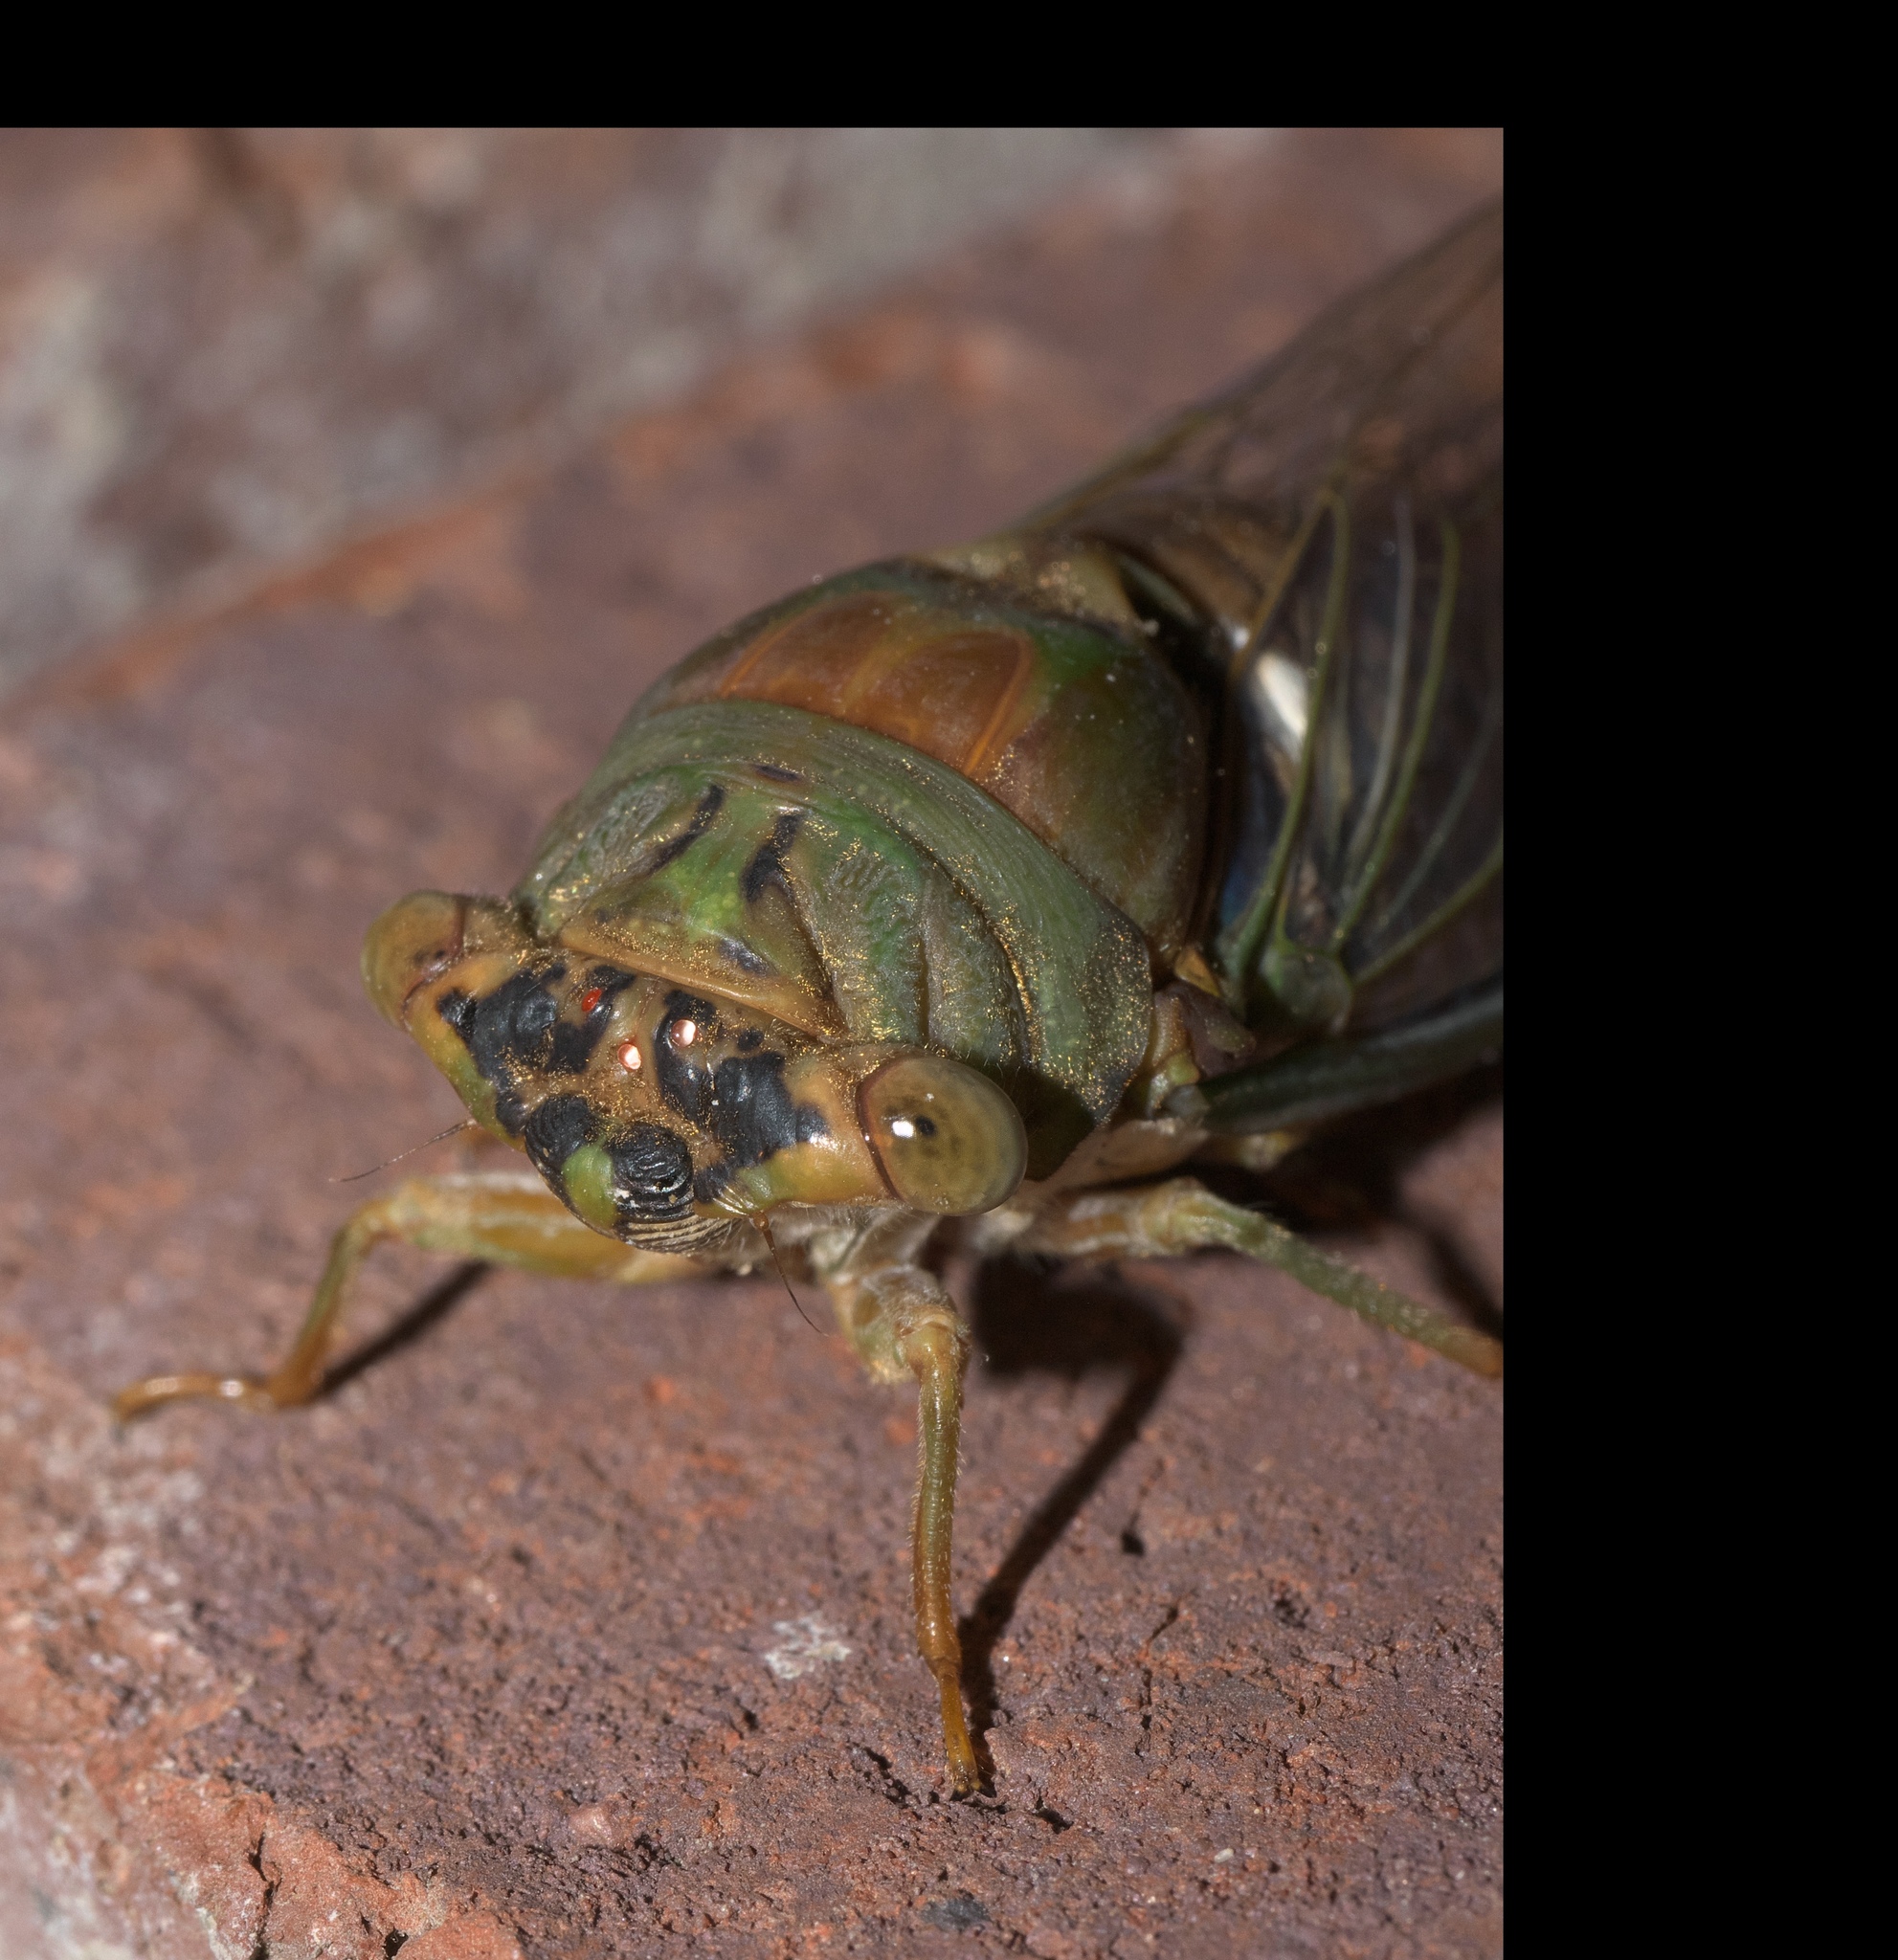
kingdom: Animalia
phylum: Arthropoda
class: Insecta
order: Hemiptera
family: Cicadidae
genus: Neotibicen
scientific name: Neotibicen pruinosus
